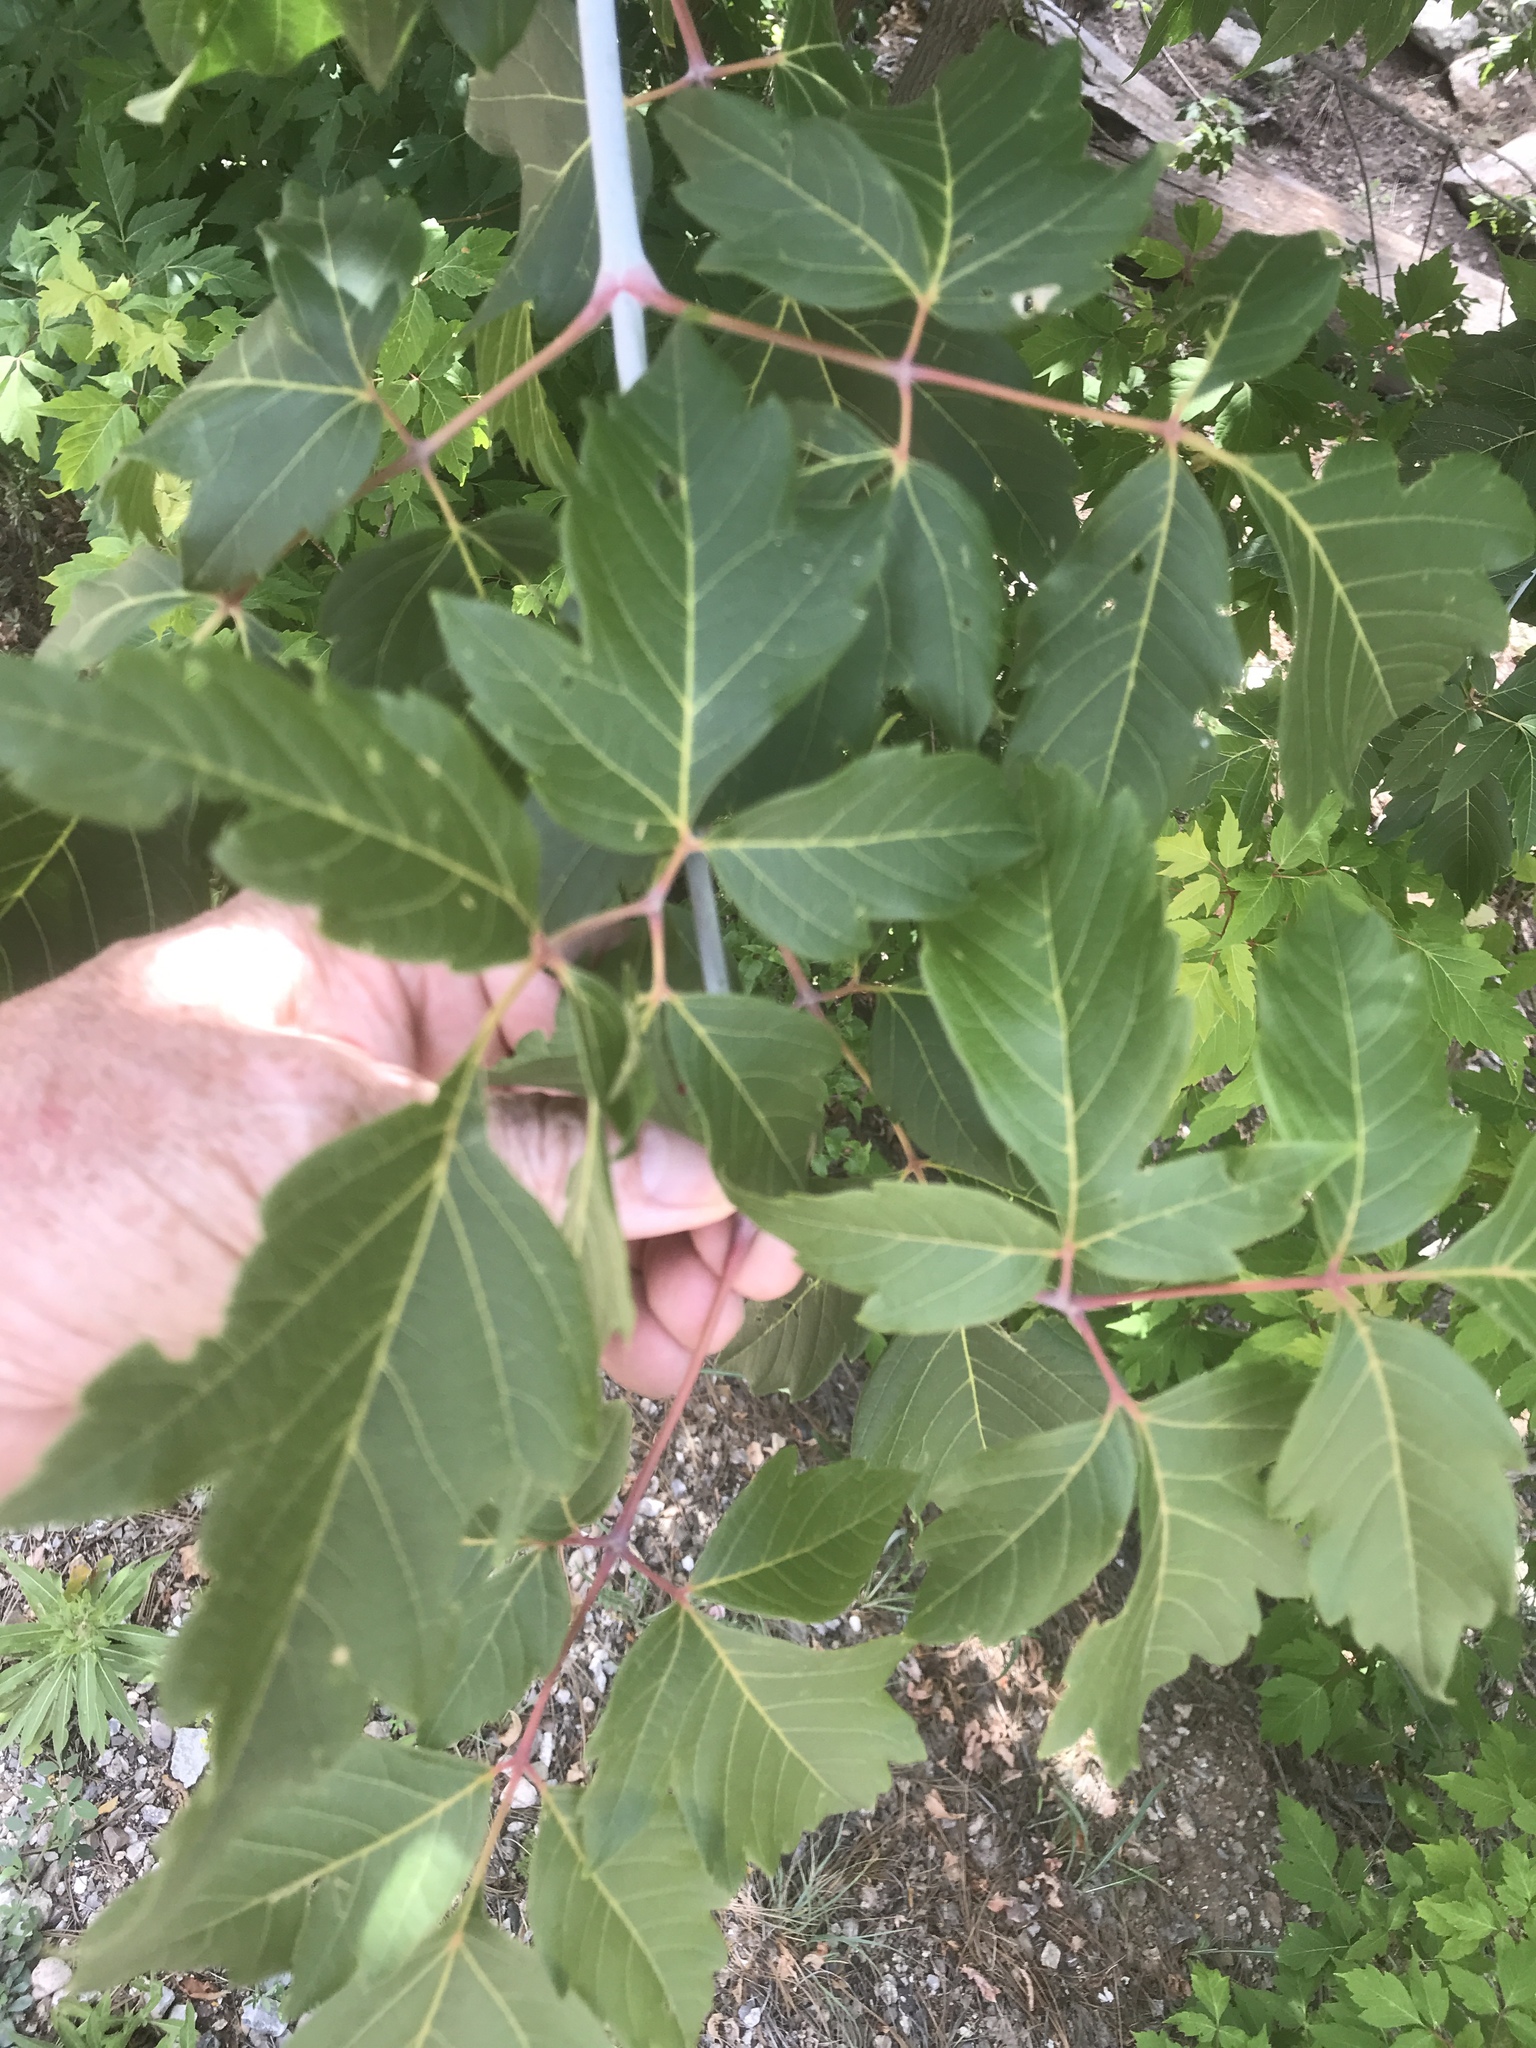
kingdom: Plantae
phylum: Tracheophyta
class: Magnoliopsida
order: Sapindales
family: Sapindaceae
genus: Acer
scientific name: Acer negundo
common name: Ashleaf maple
